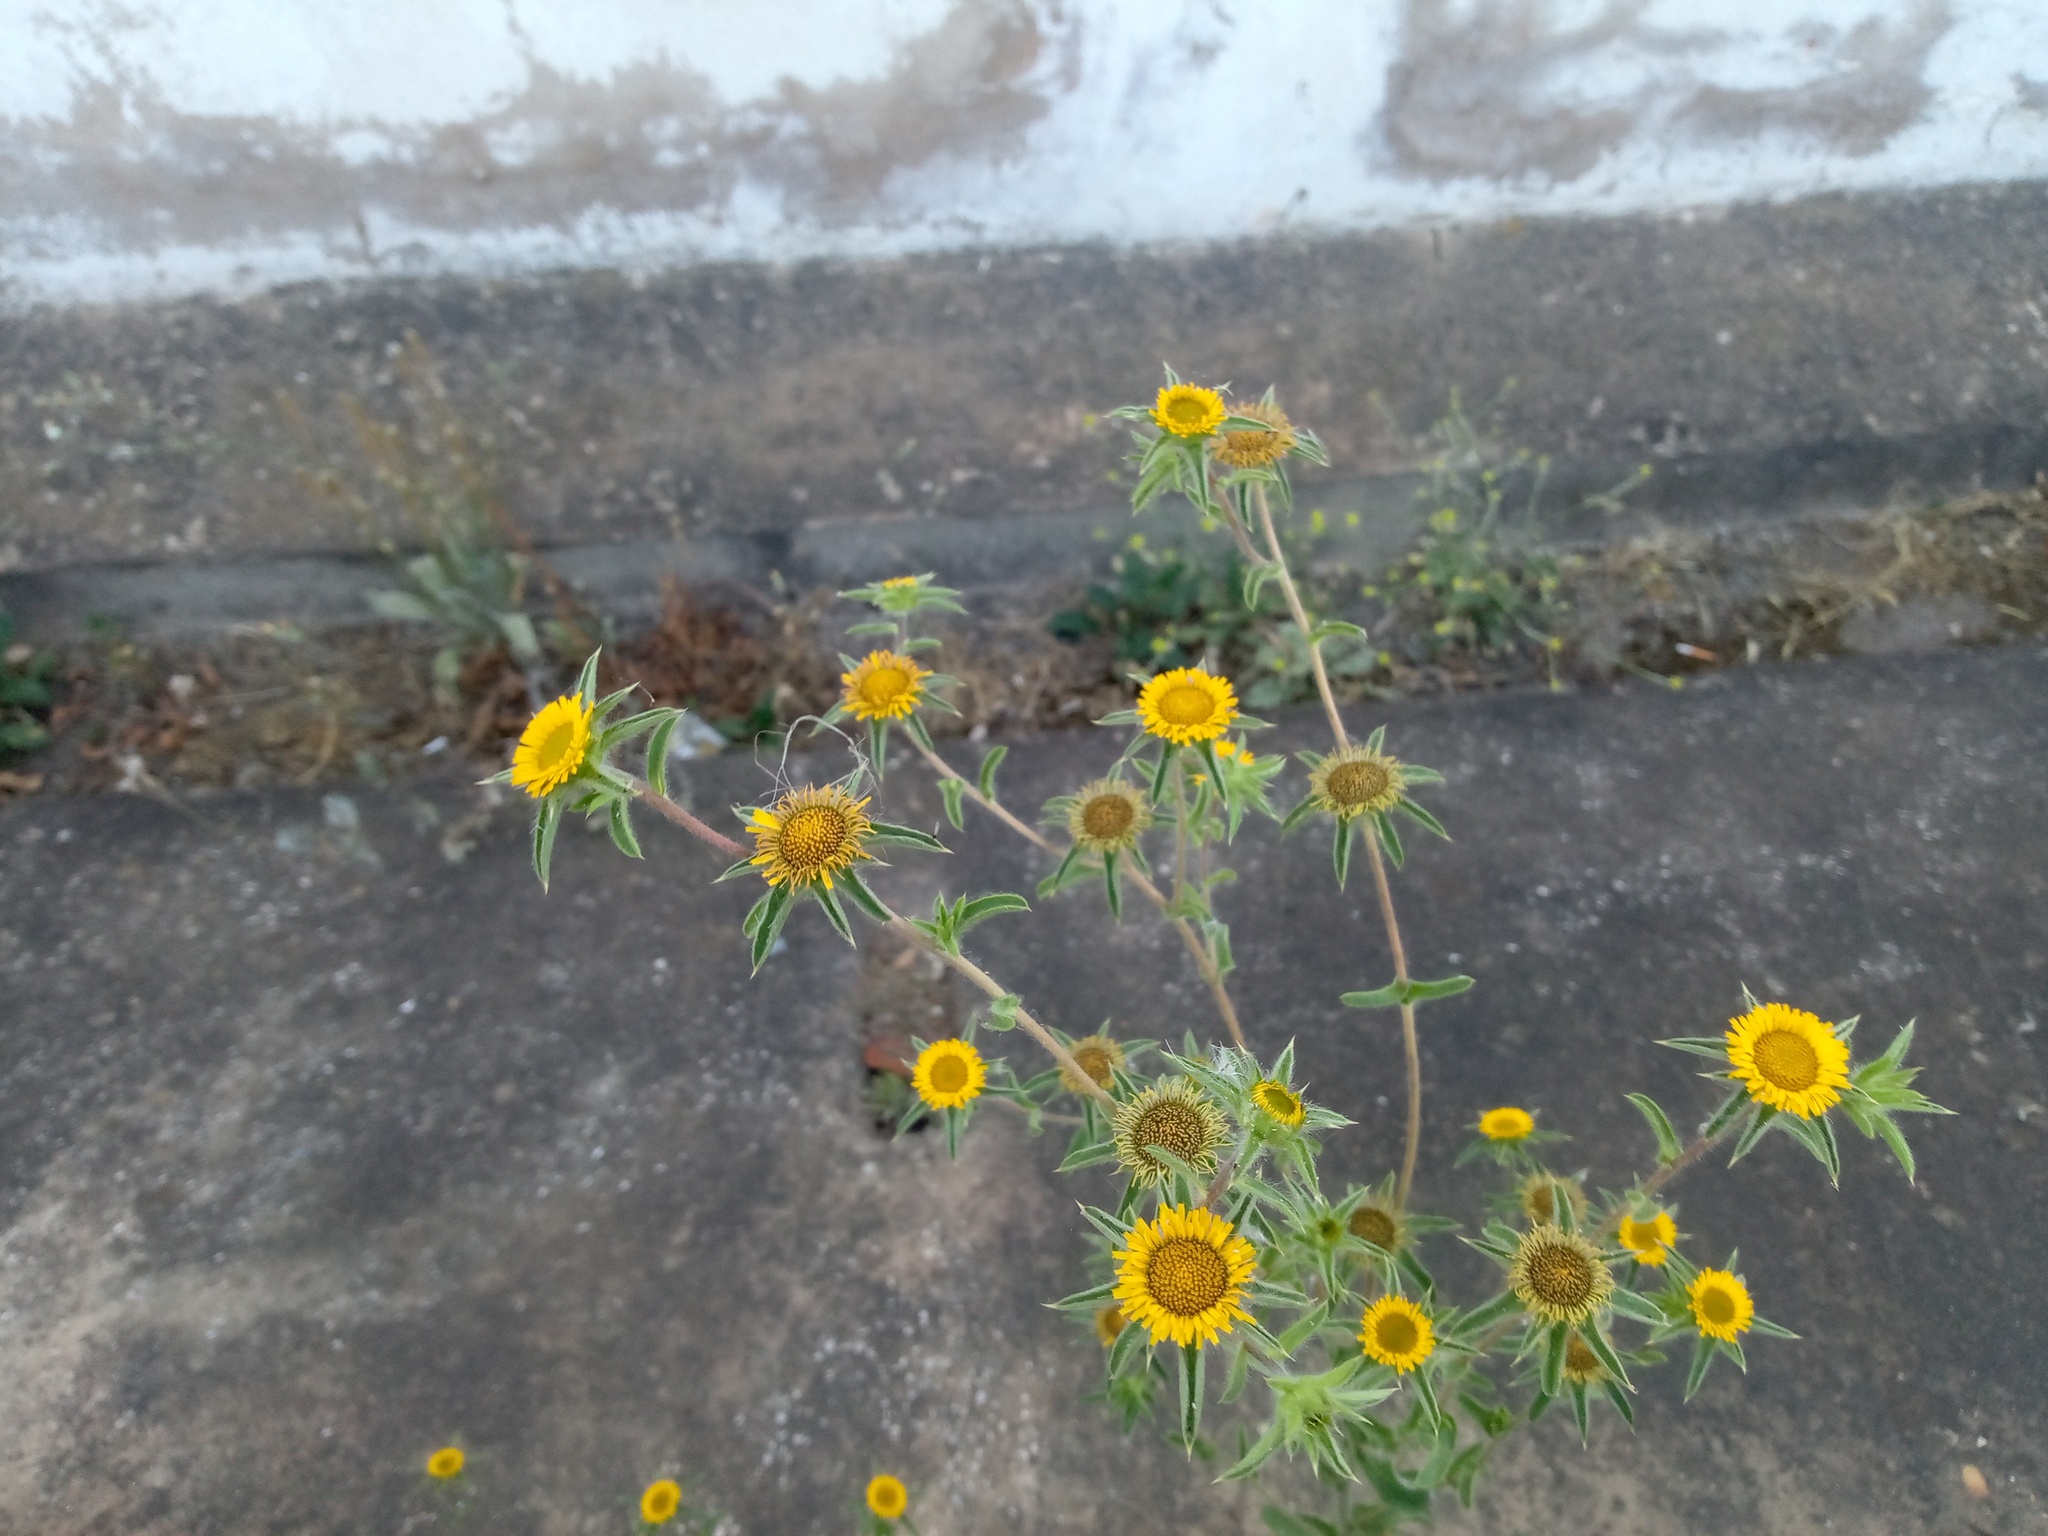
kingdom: Plantae
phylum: Tracheophyta
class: Magnoliopsida
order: Asterales
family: Asteraceae
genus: Pallenis
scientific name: Pallenis spinosa
